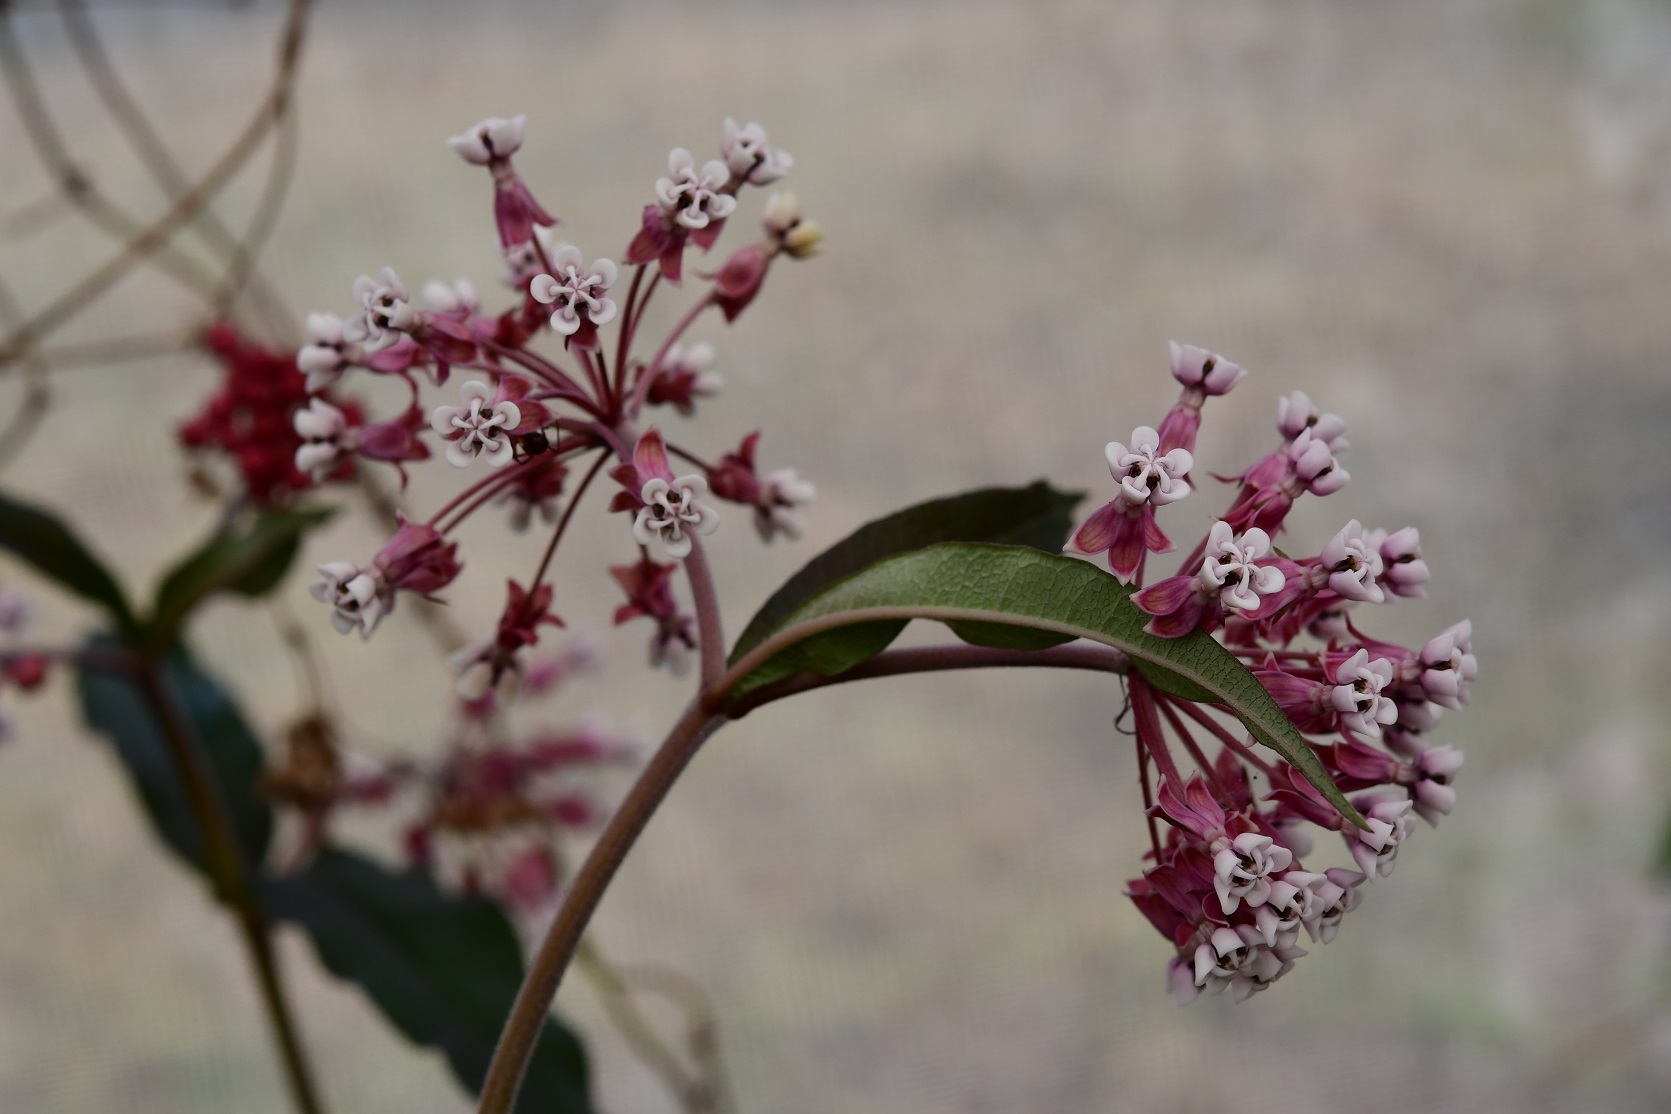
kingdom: Plantae
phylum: Tracheophyta
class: Magnoliopsida
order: Gentianales
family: Apocynaceae
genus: Asclepias
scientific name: Asclepias pellucida
